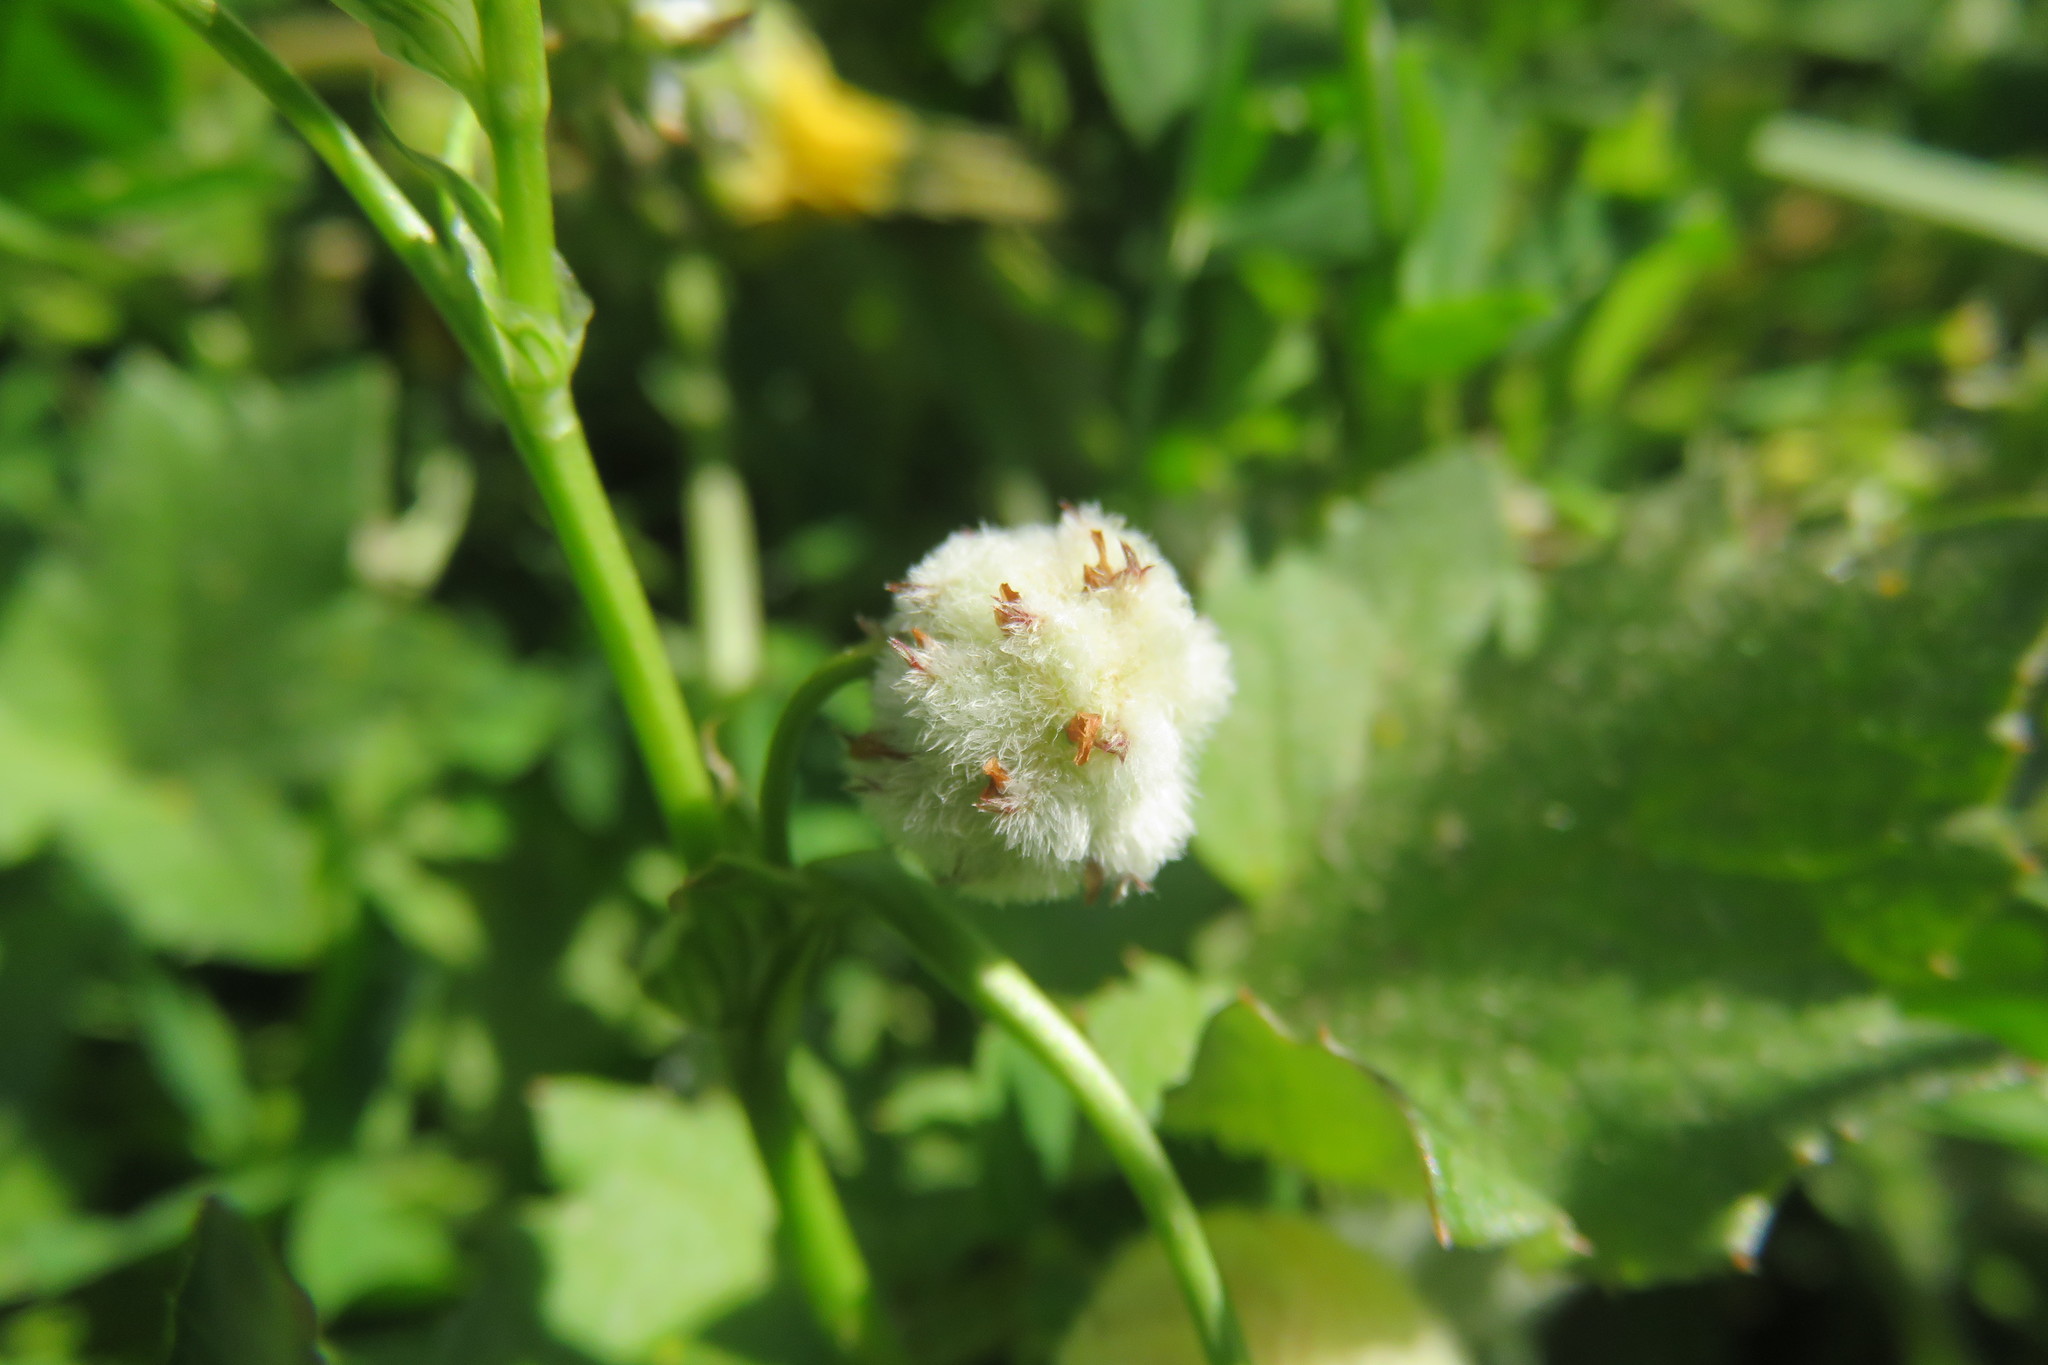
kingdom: Plantae
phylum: Tracheophyta
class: Magnoliopsida
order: Fabales
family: Fabaceae
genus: Trifolium
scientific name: Trifolium tomentosum
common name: Woolly clover
